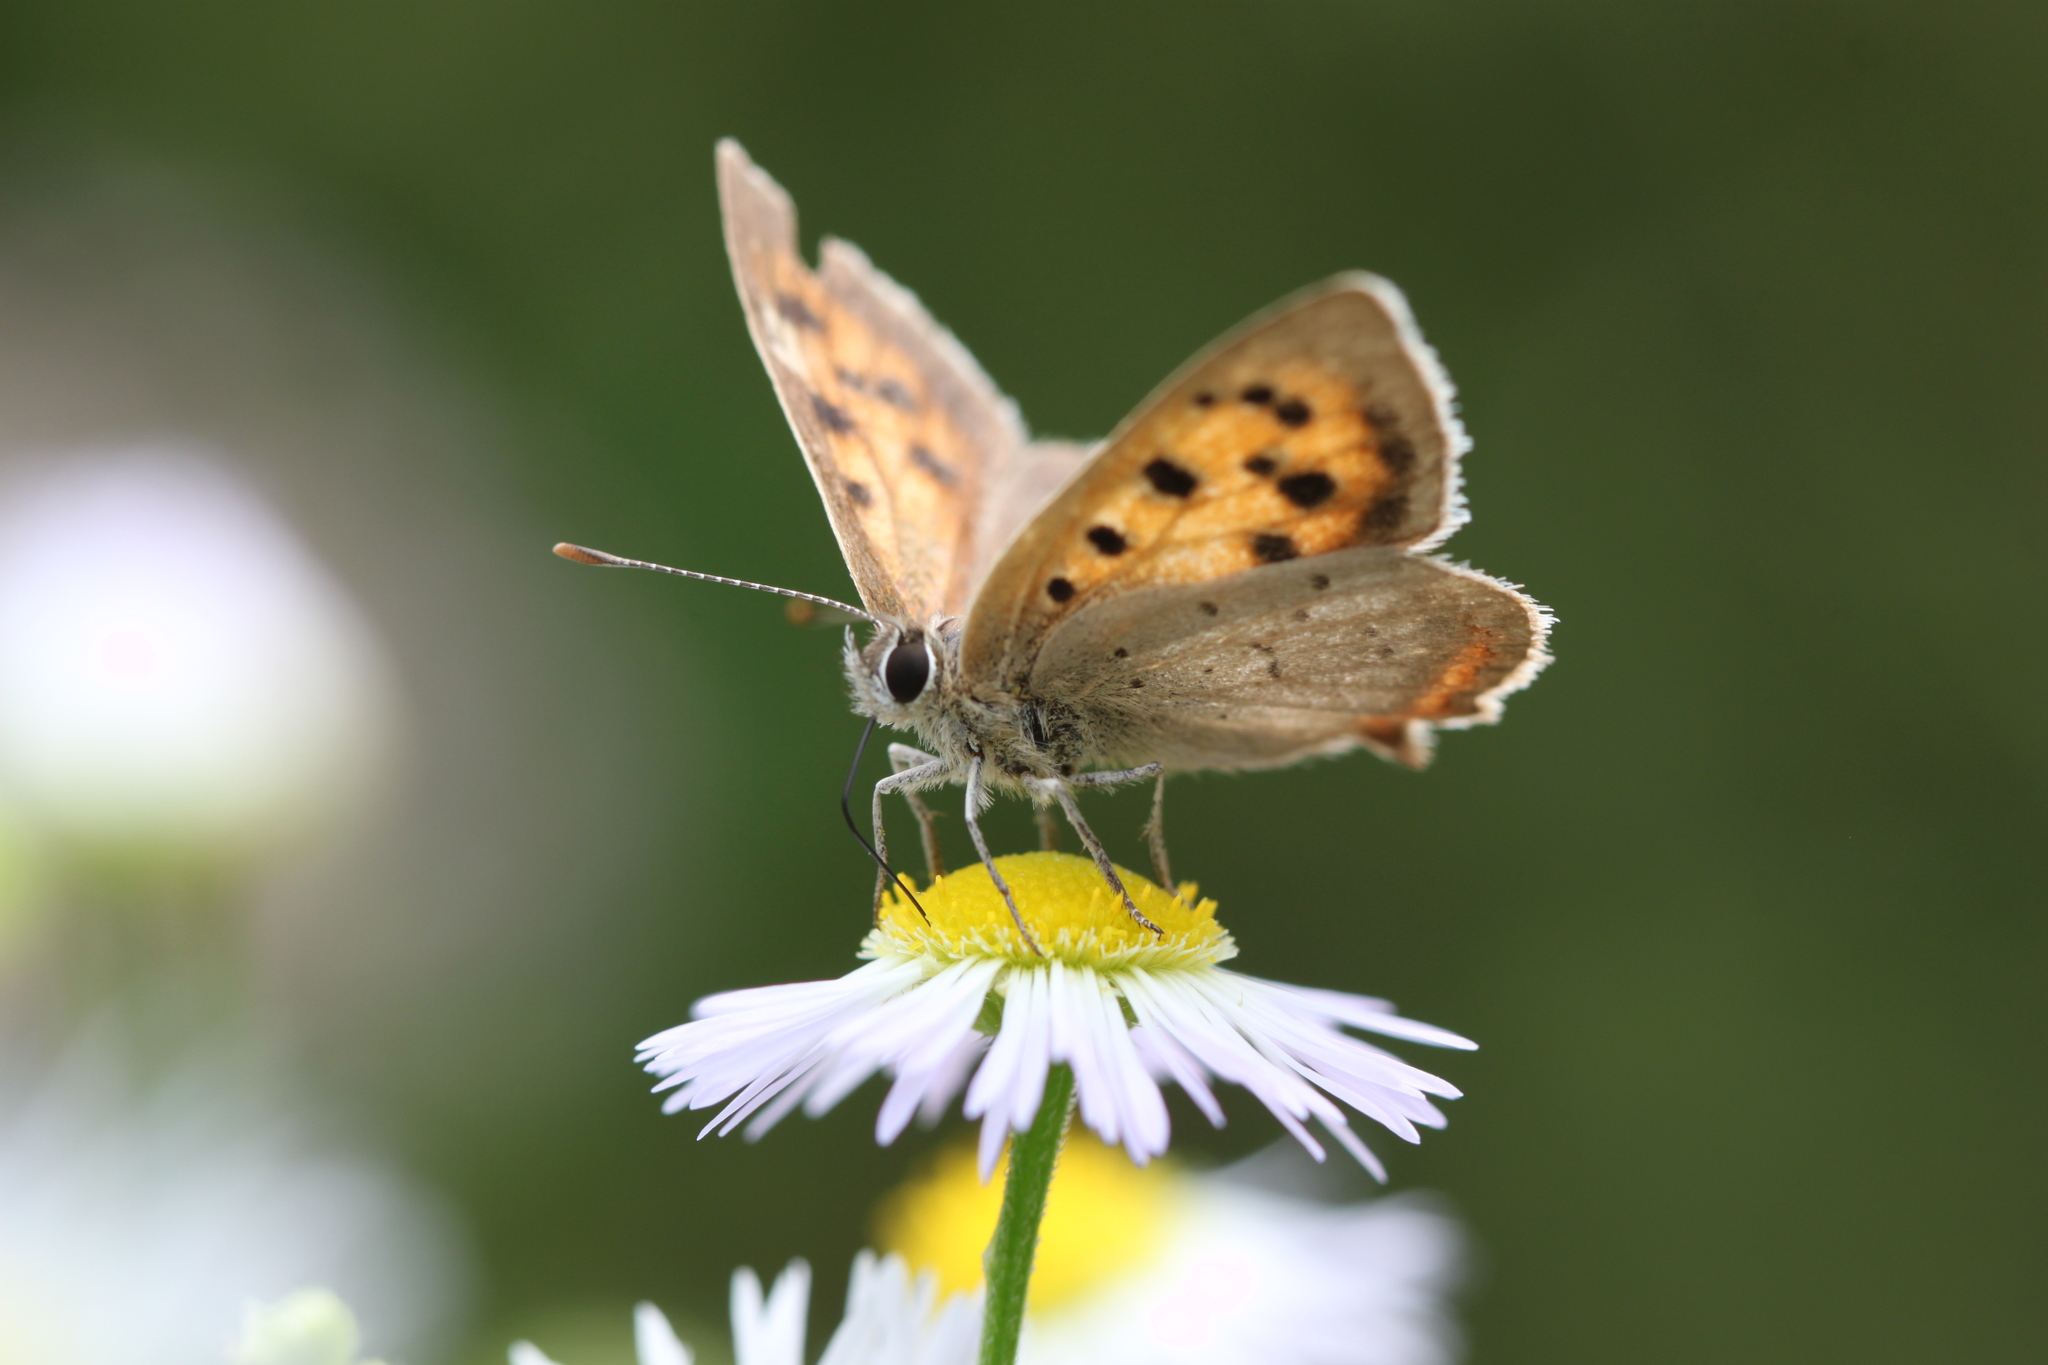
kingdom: Animalia
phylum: Arthropoda
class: Insecta
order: Lepidoptera
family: Lycaenidae
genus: Lycaena
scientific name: Lycaena phlaeas
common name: Small copper
